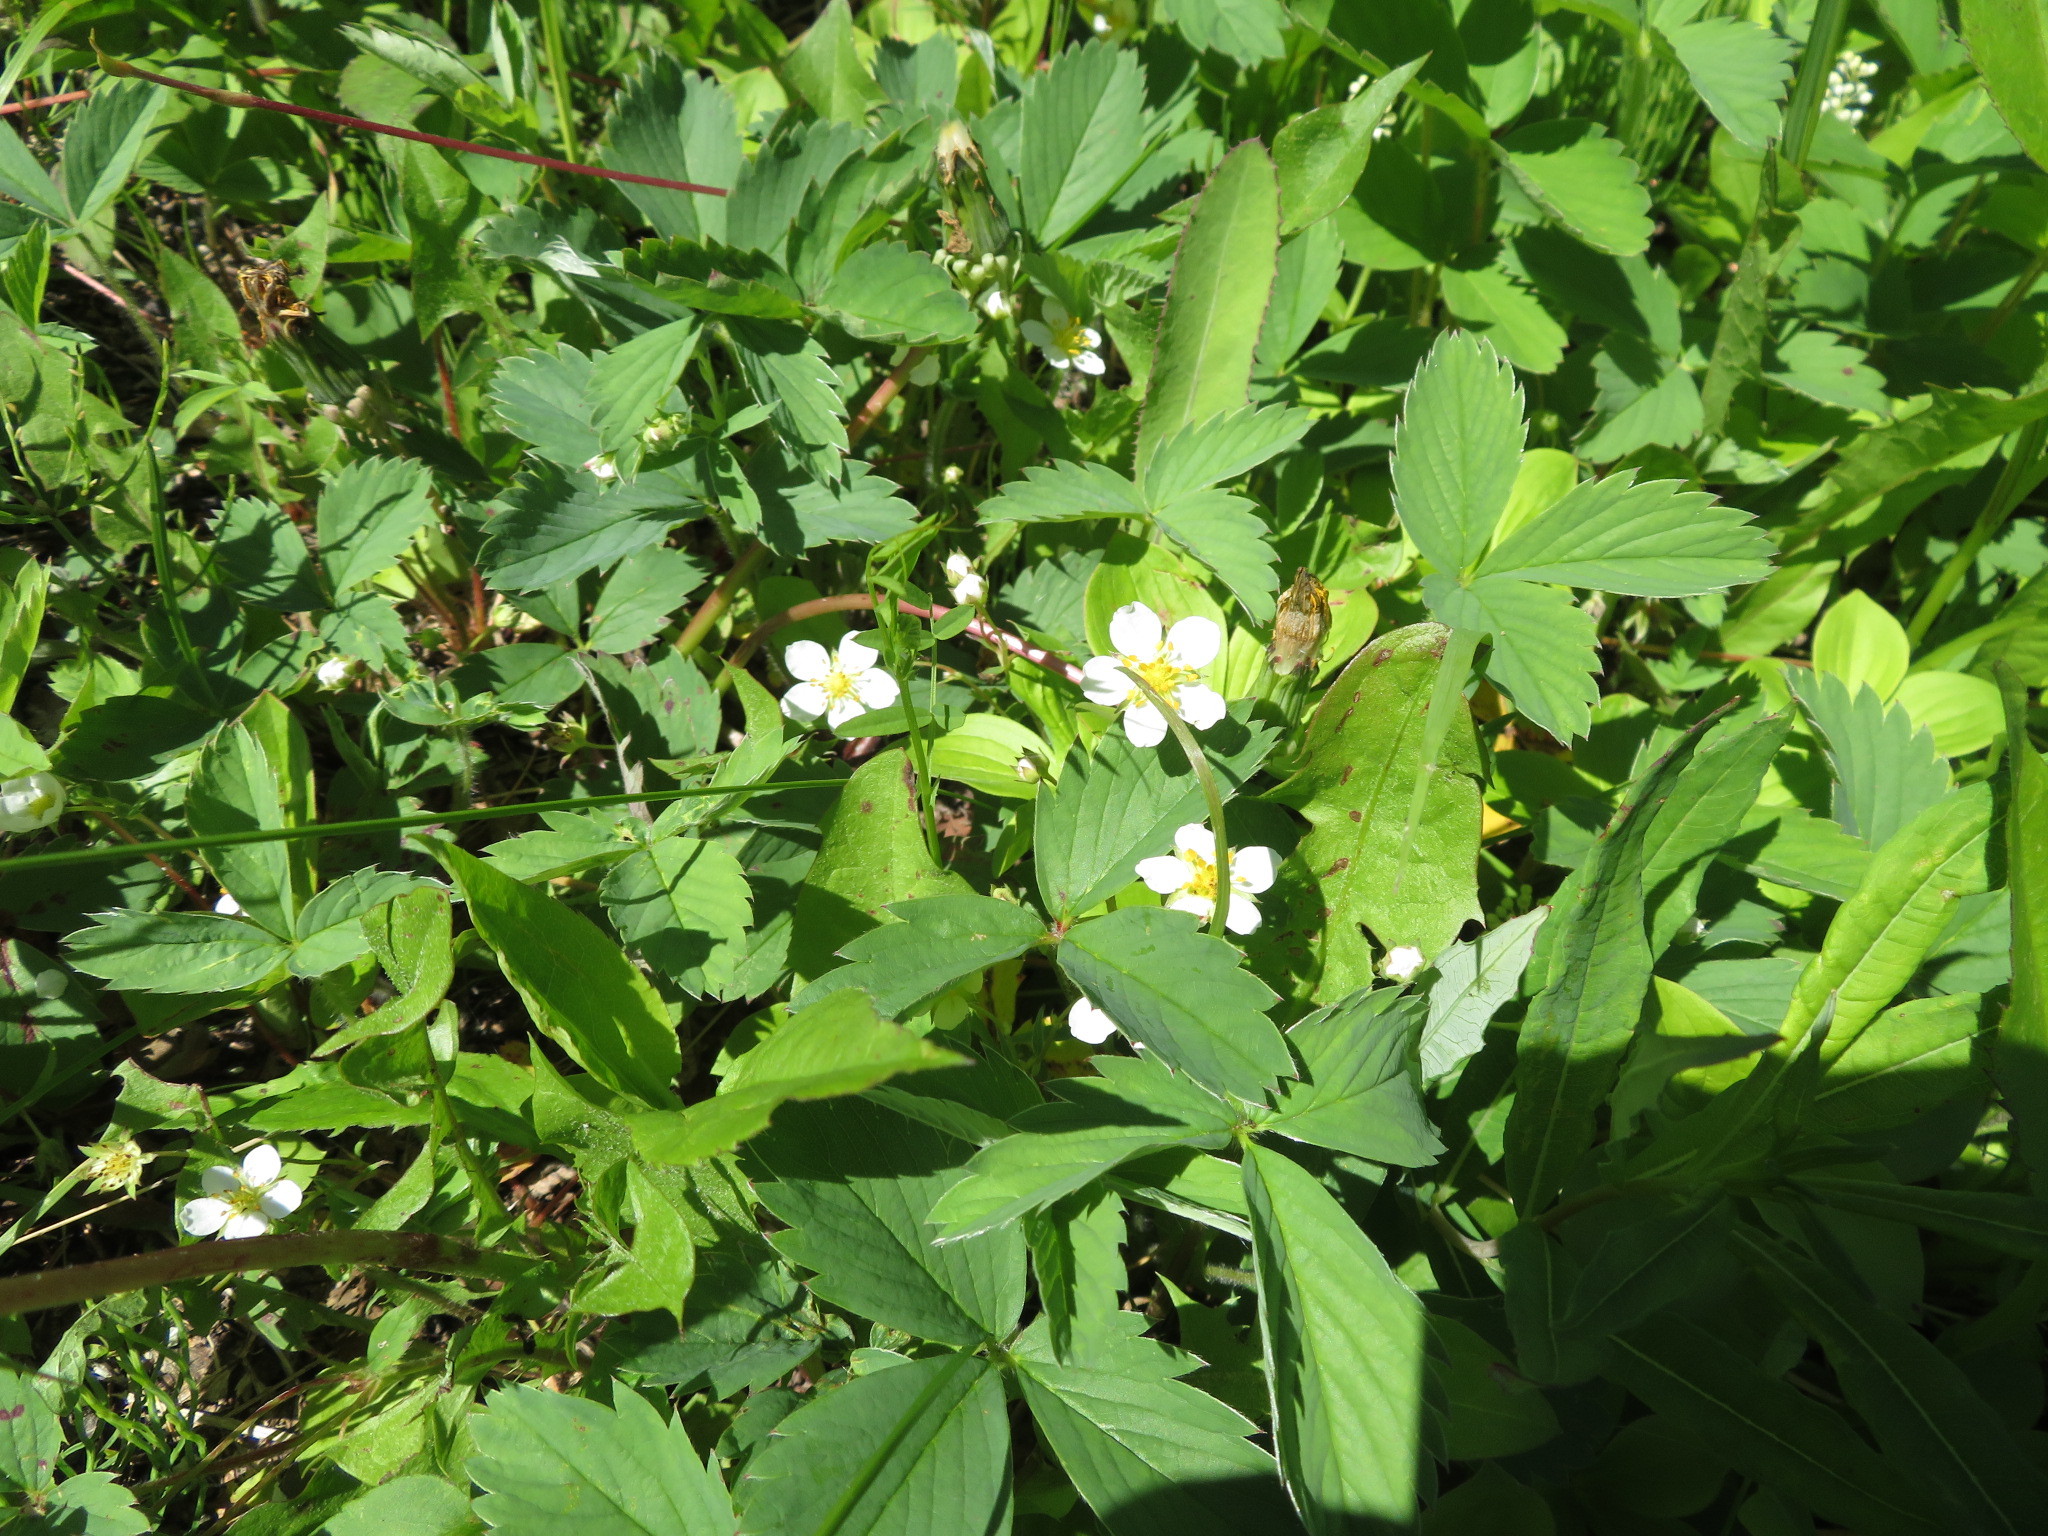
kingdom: Plantae
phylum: Tracheophyta
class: Magnoliopsida
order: Rosales
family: Rosaceae
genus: Fragaria
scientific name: Fragaria virginiana
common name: Thickleaved wild strawberry
